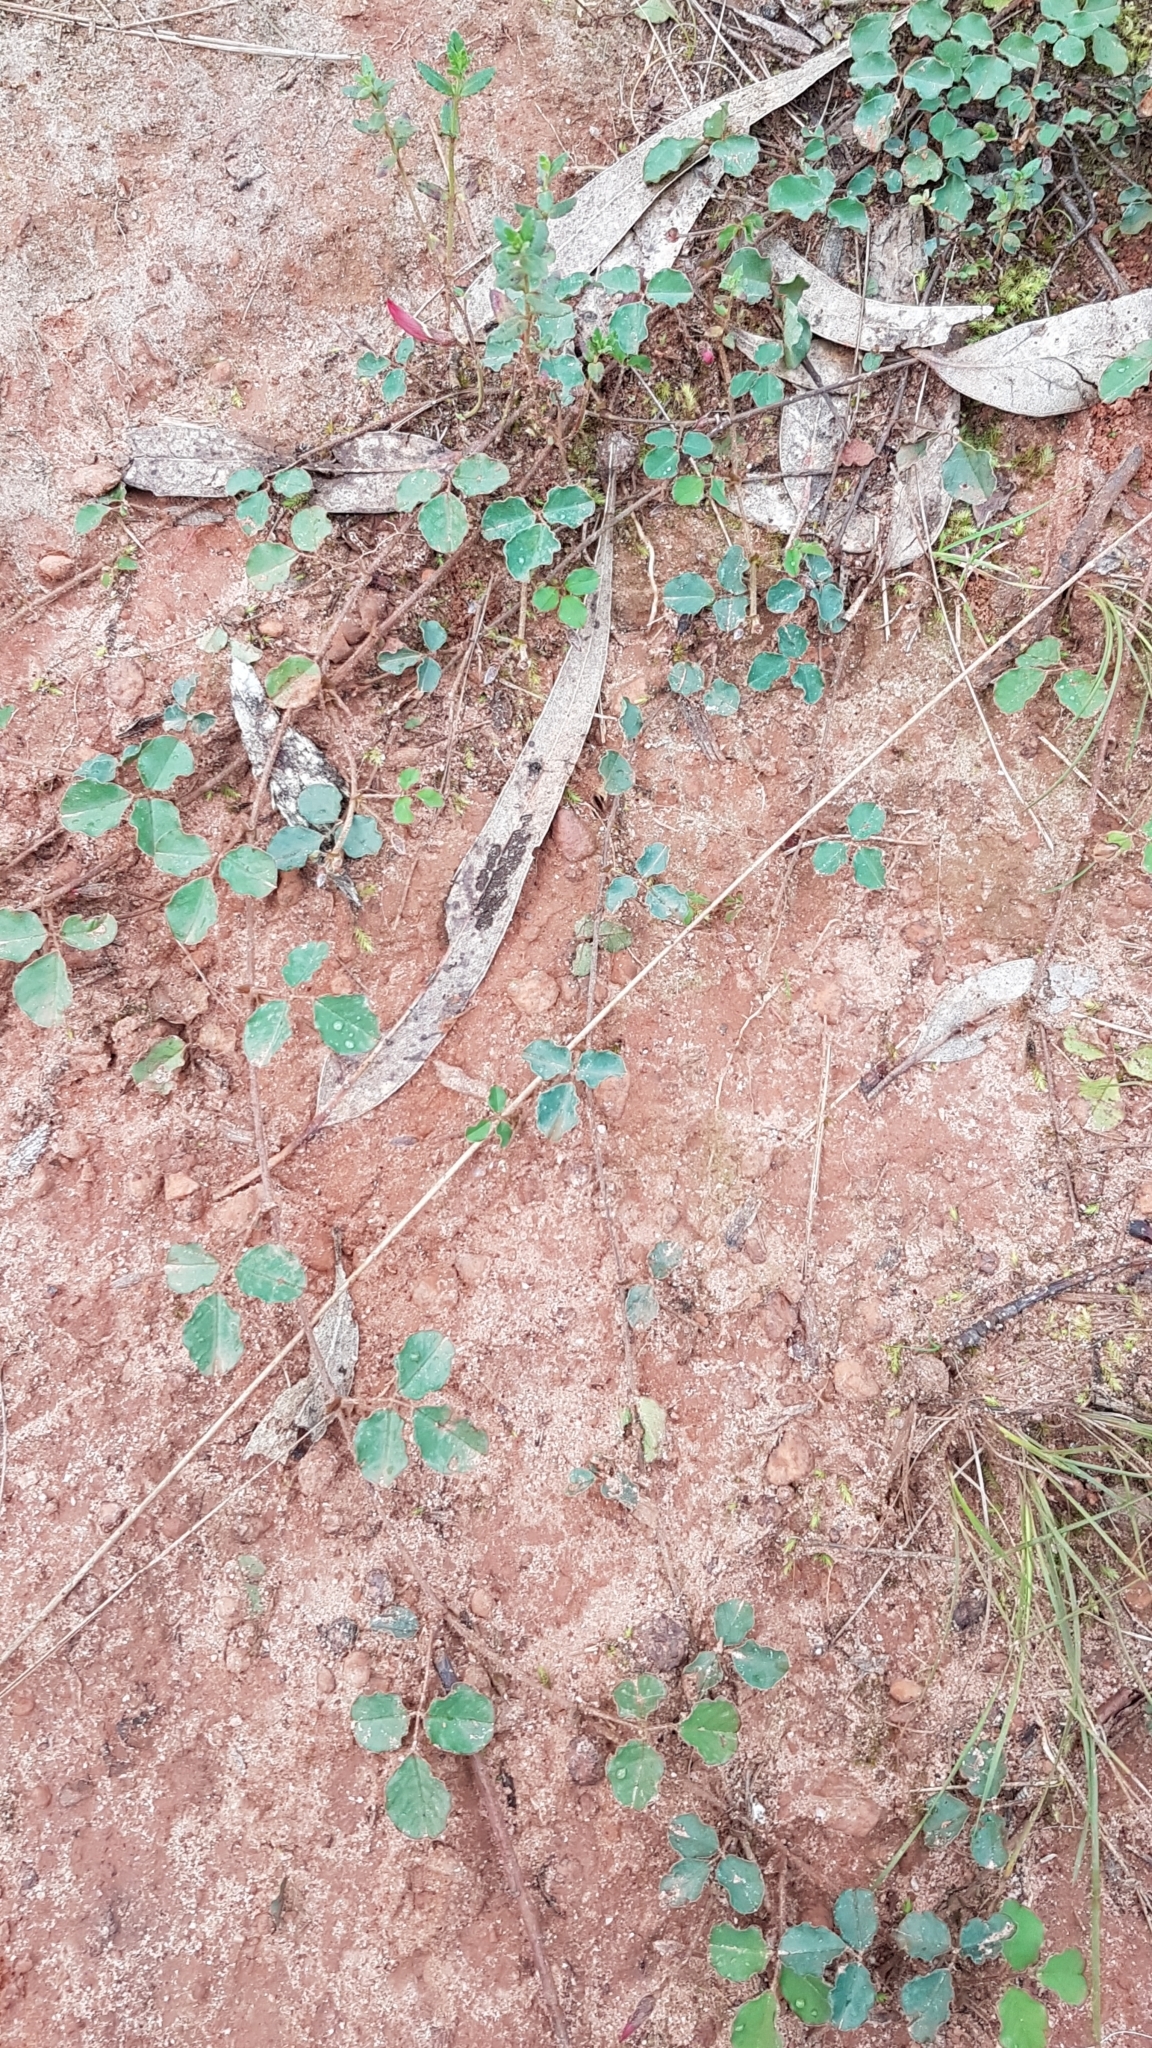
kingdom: Plantae
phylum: Tracheophyta
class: Magnoliopsida
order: Fabales
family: Fabaceae
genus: Kennedia
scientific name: Kennedia prostrata
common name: Running-postman
